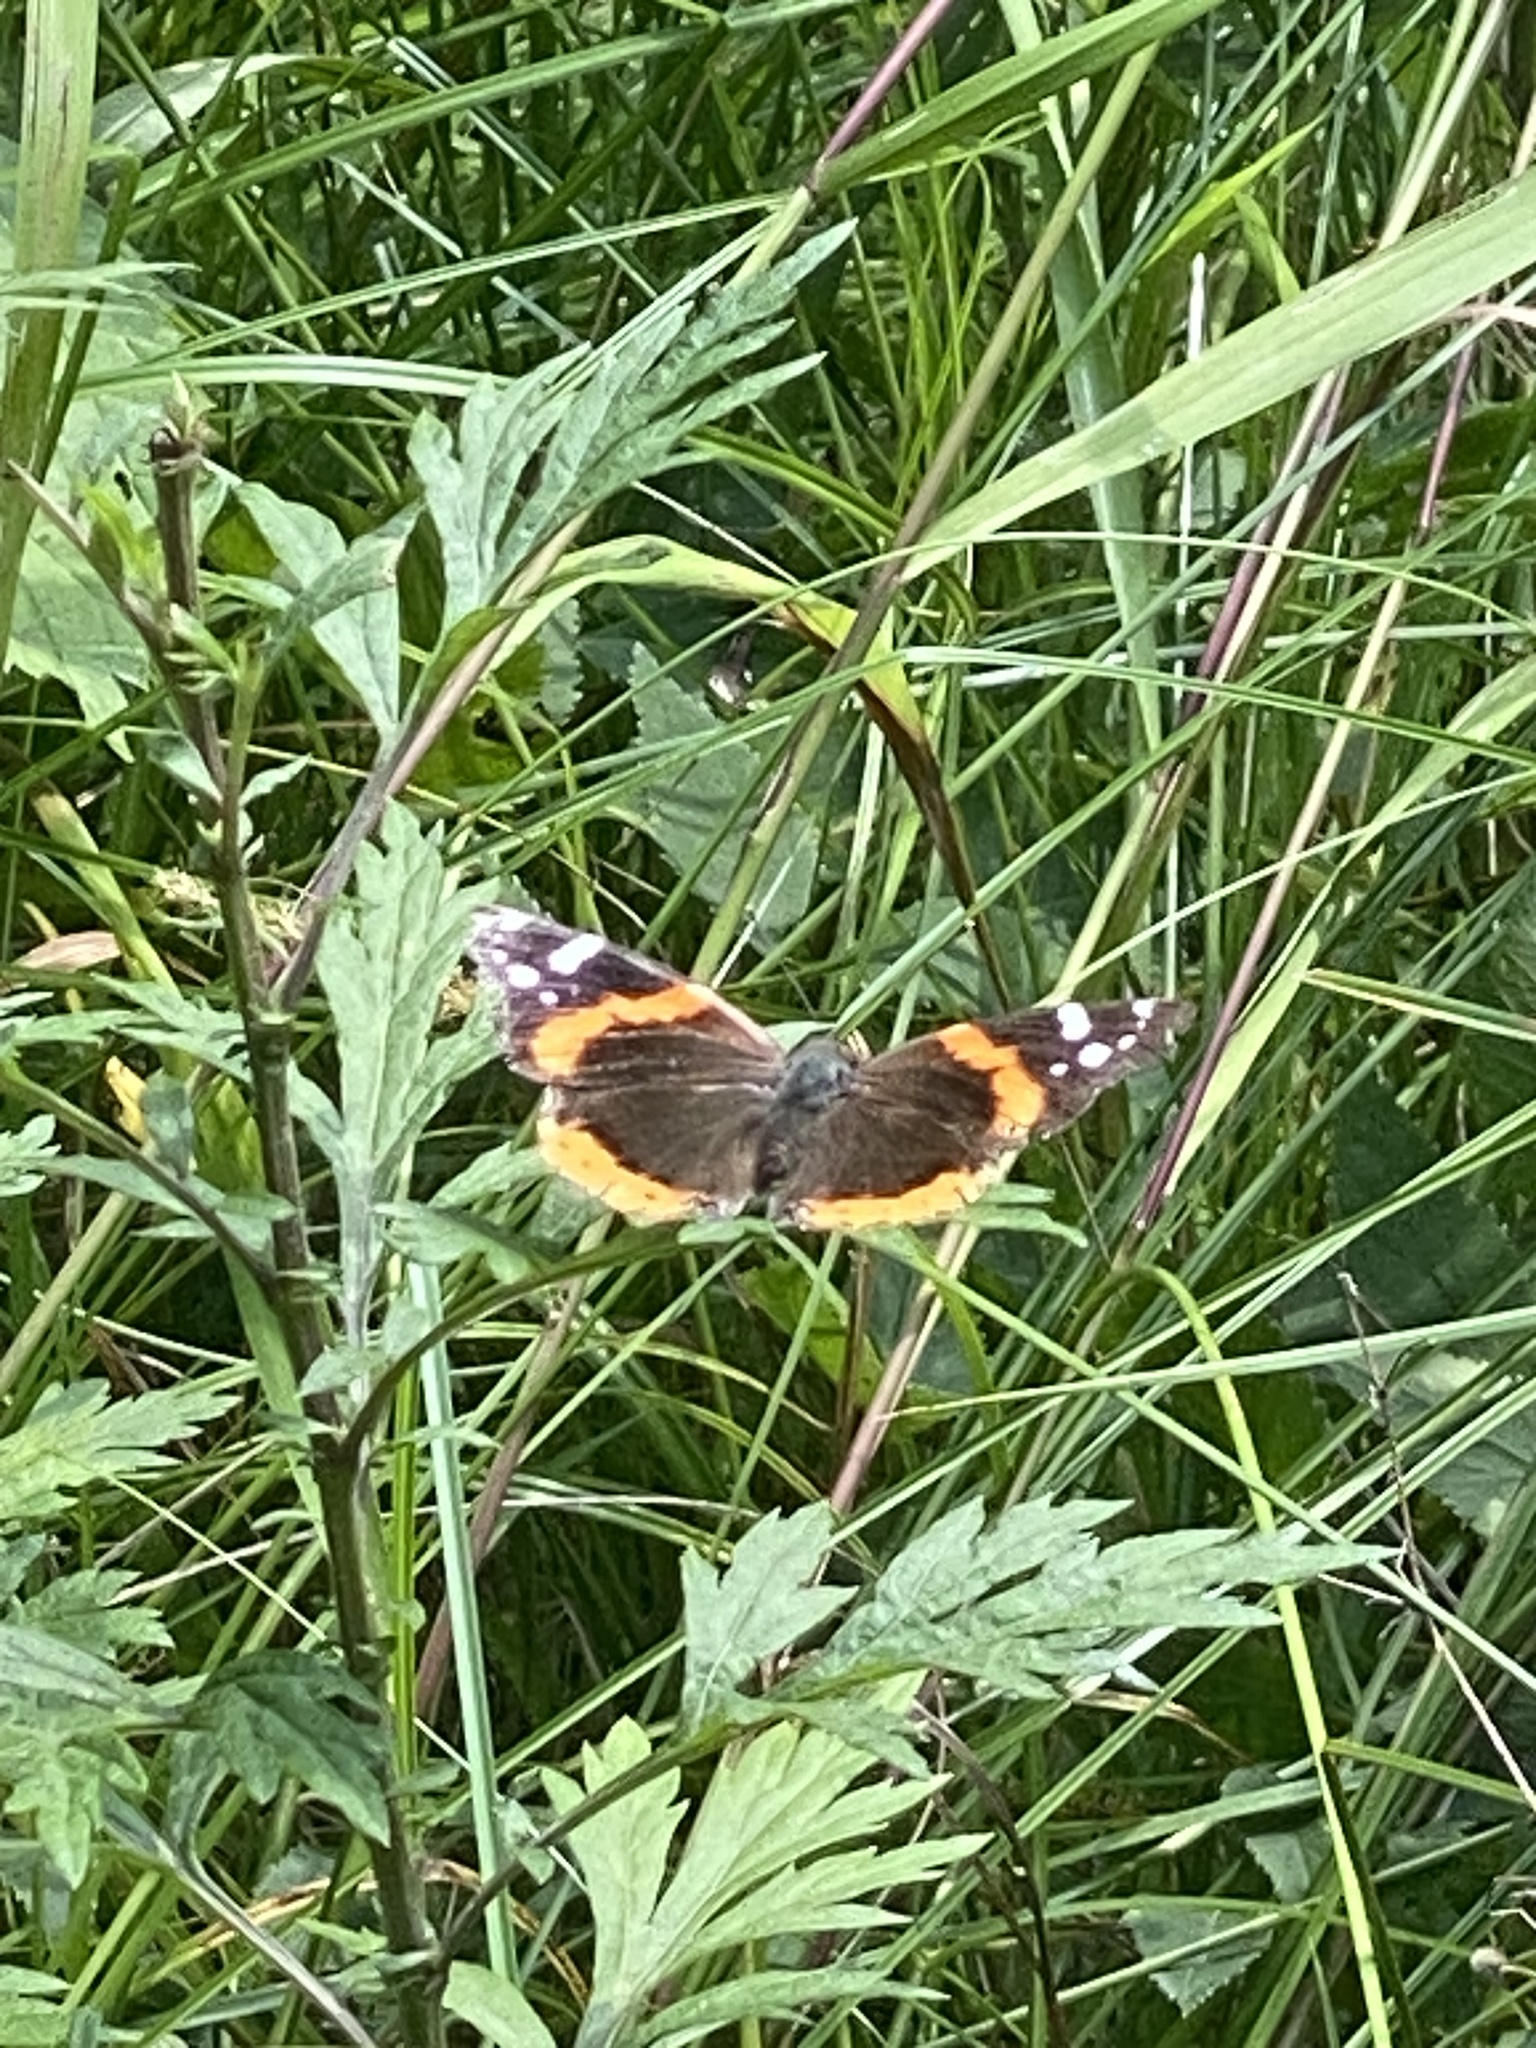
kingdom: Animalia
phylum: Arthropoda
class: Insecta
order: Lepidoptera
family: Nymphalidae
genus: Vanessa
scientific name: Vanessa atalanta
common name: Red admiral
